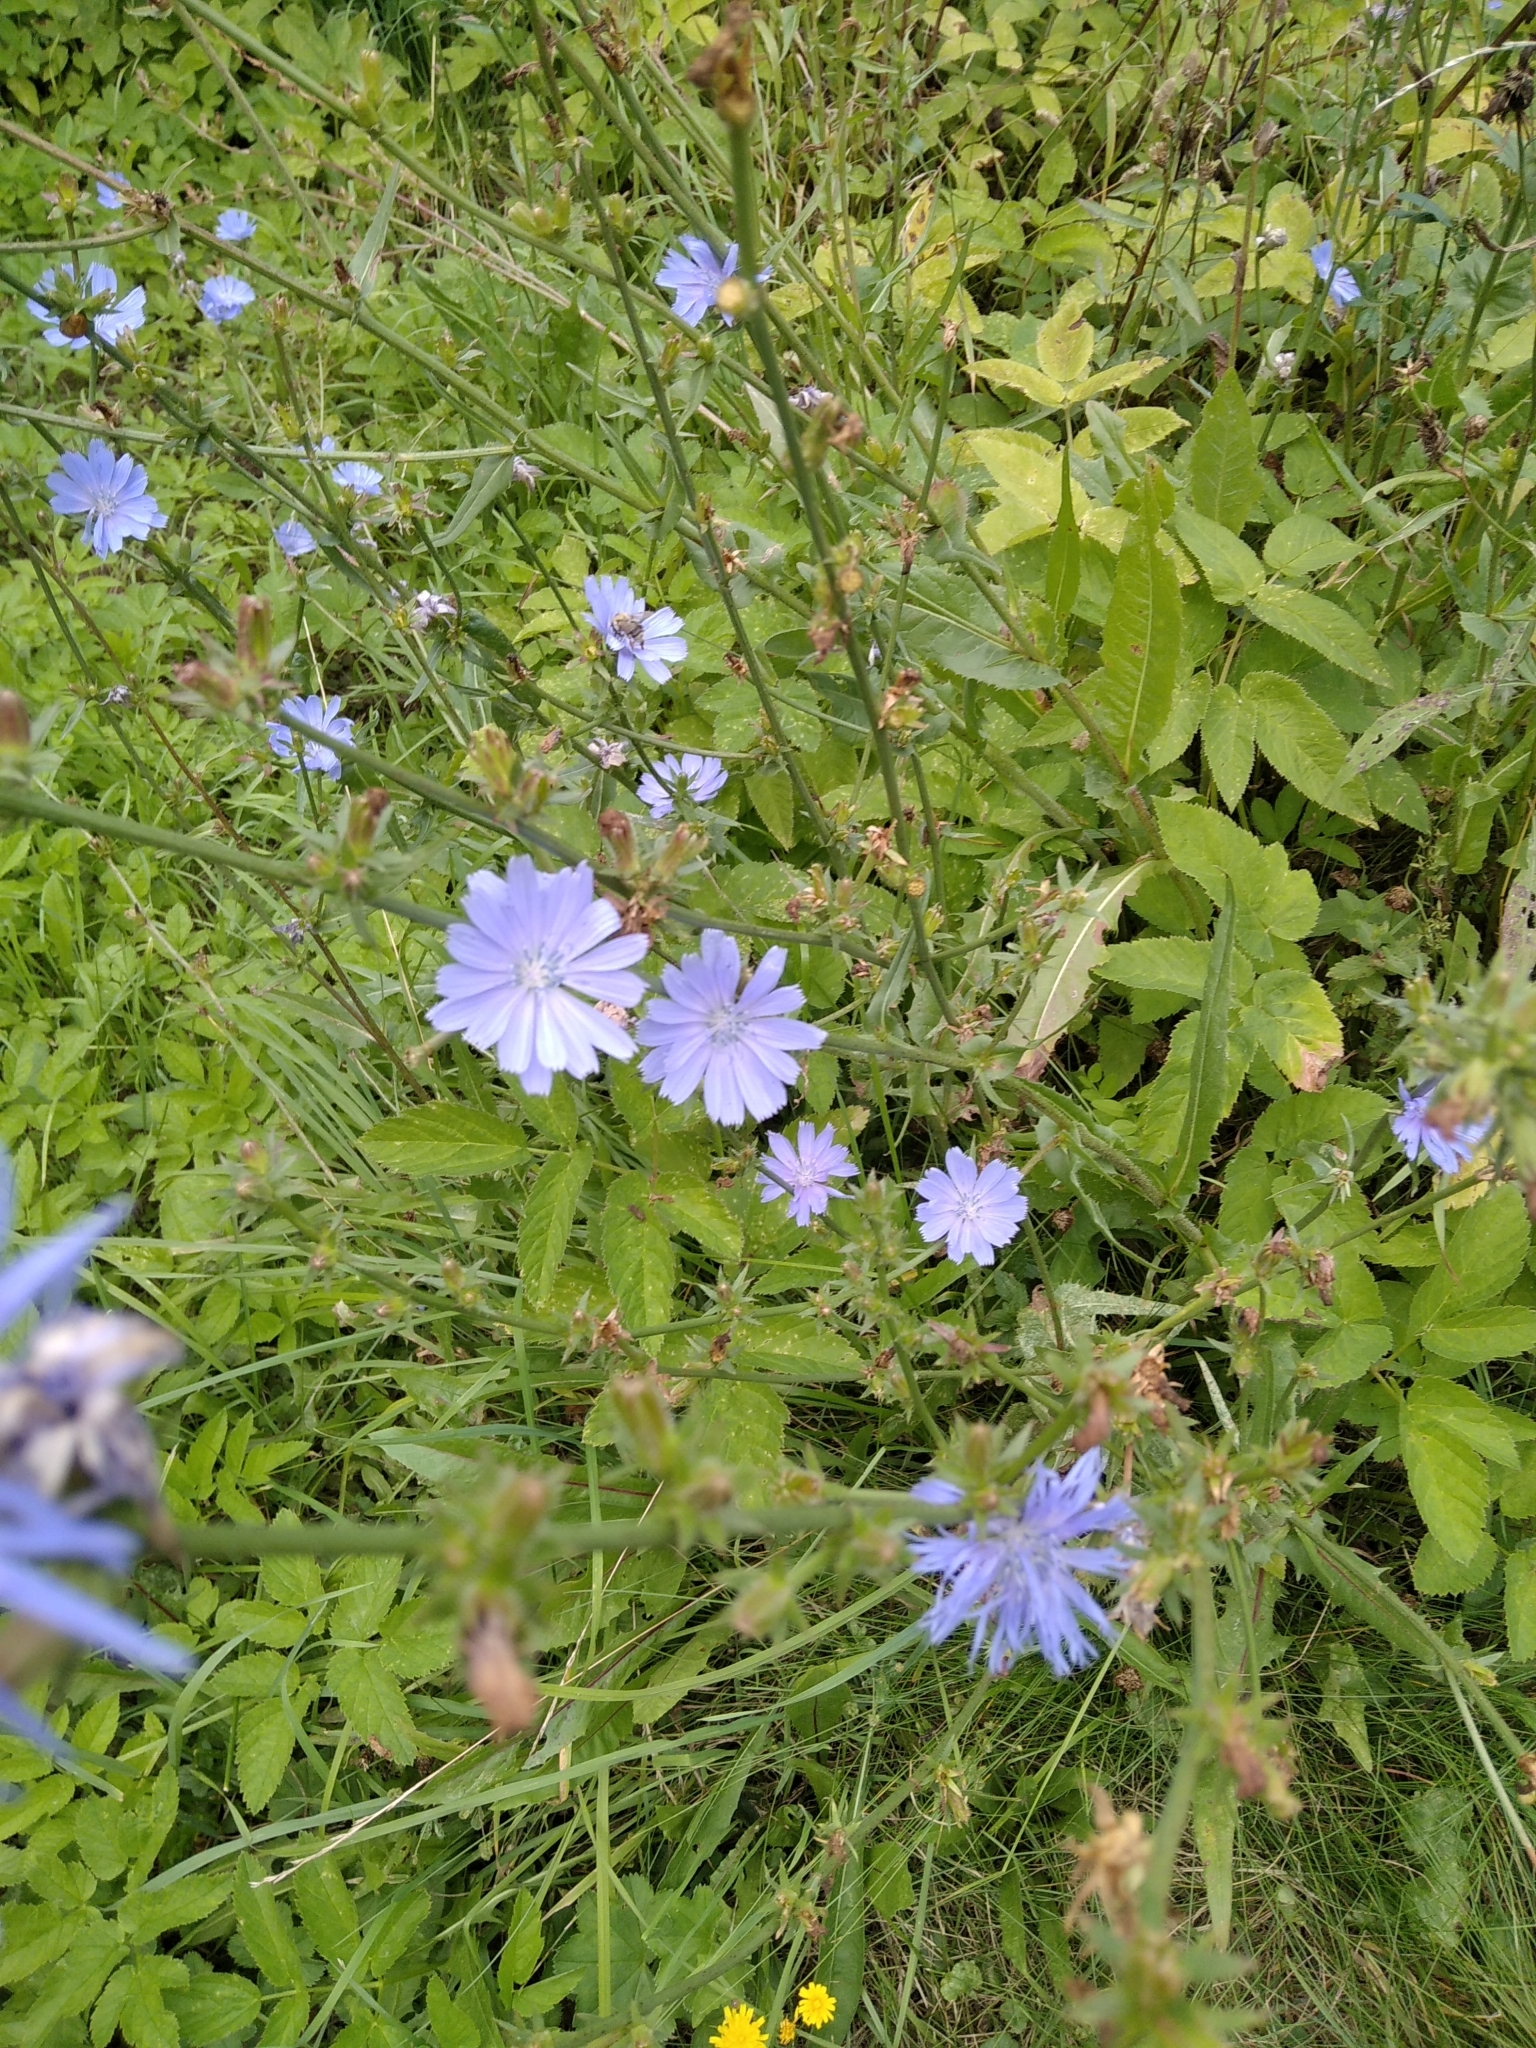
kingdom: Plantae
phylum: Tracheophyta
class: Magnoliopsida
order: Asterales
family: Asteraceae
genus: Cichorium
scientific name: Cichorium intybus
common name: Chicory
